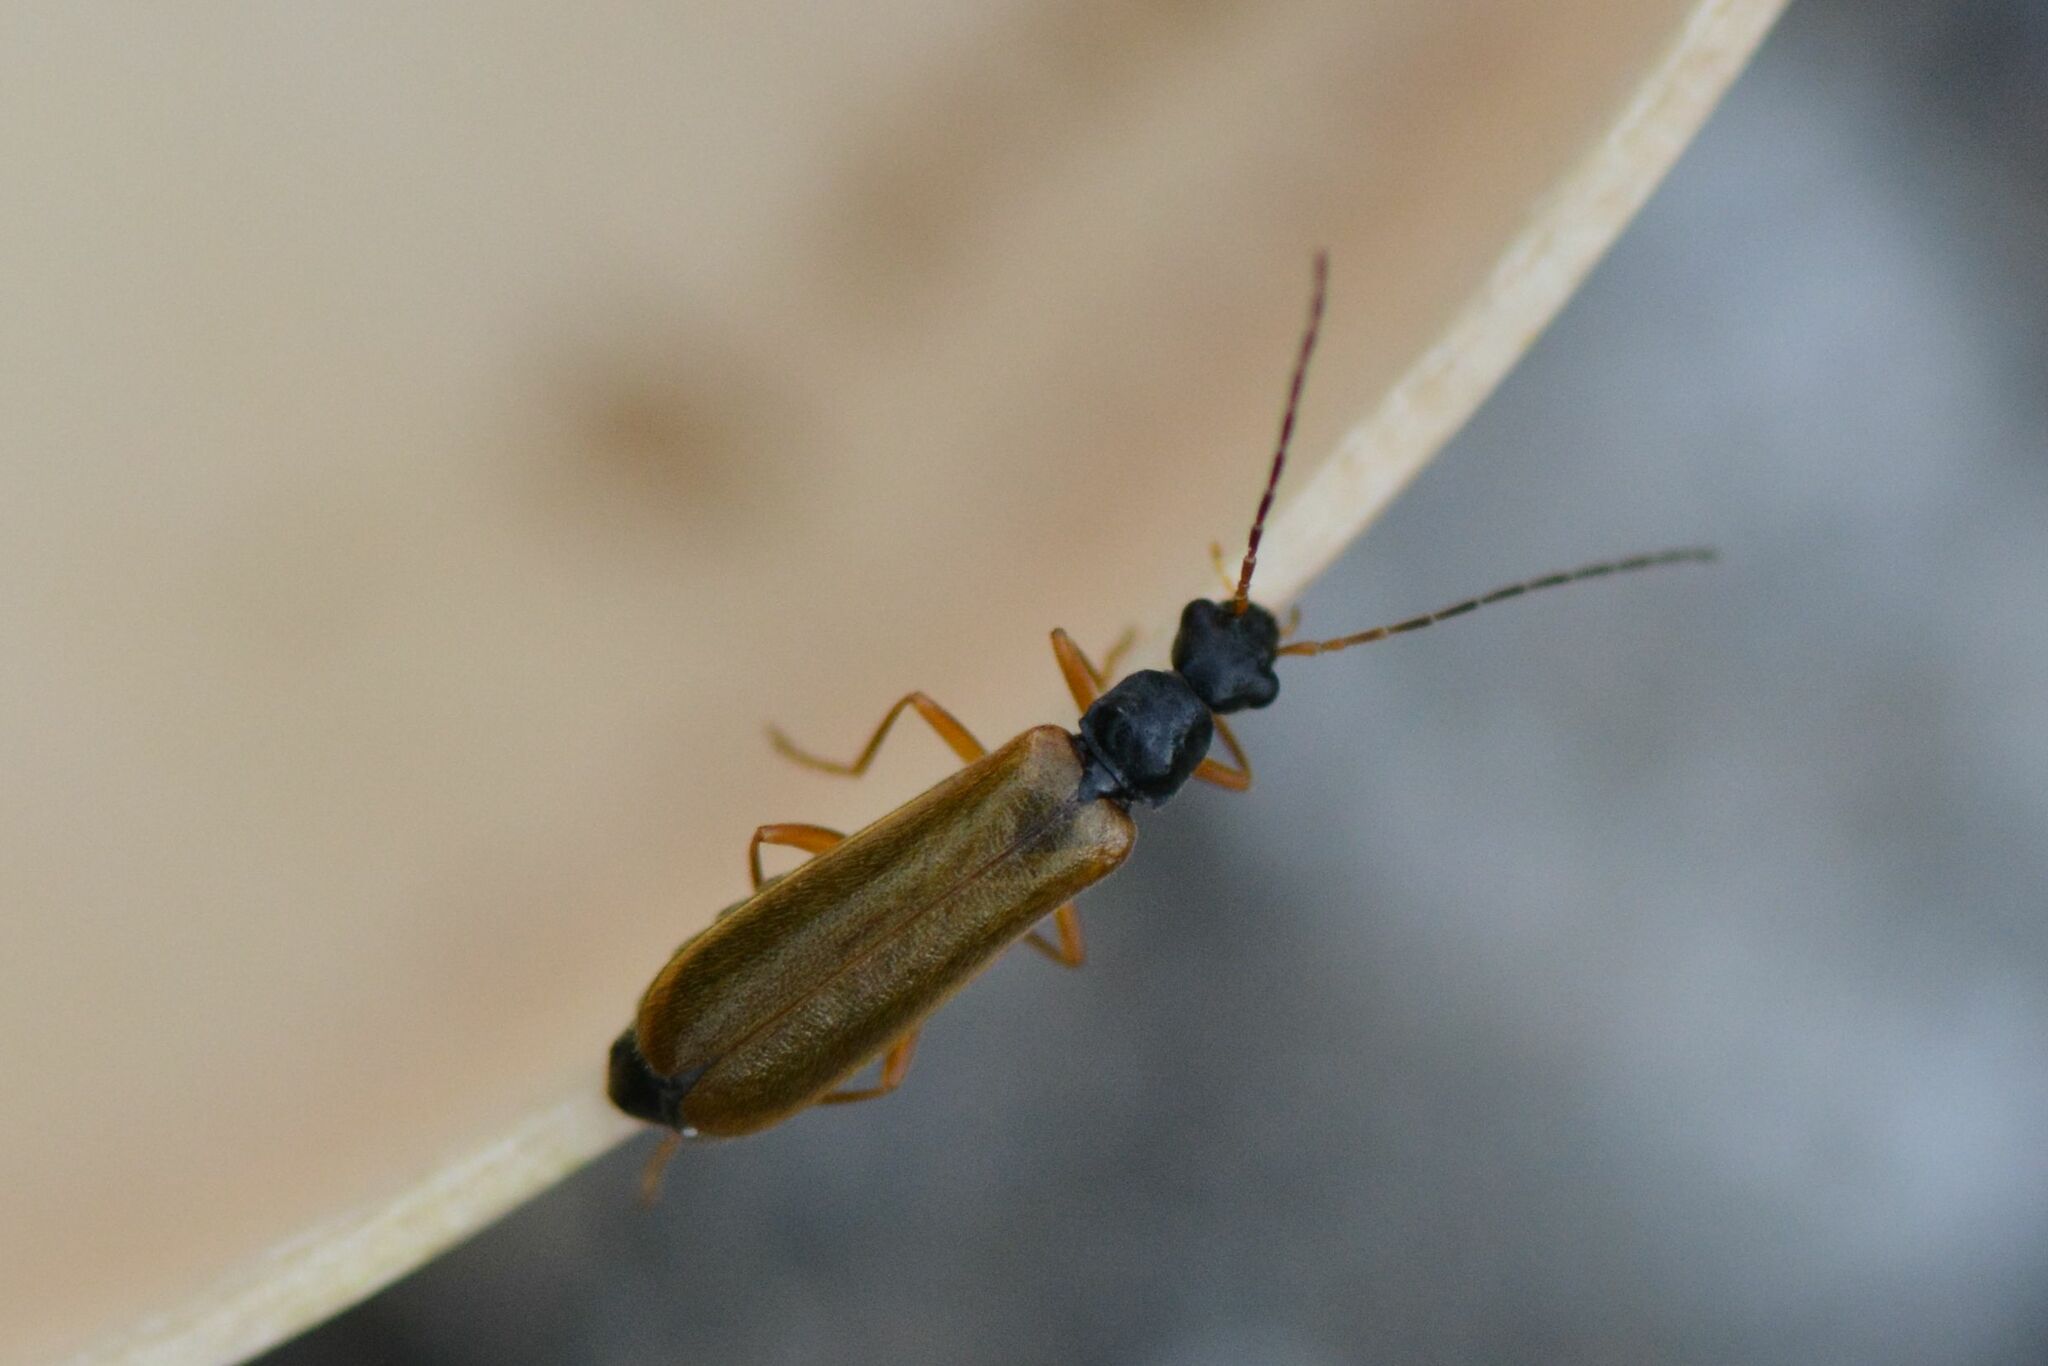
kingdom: Animalia
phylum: Arthropoda
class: Insecta
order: Coleoptera
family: Cantharidae
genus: Rhagonycha
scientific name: Rhagonycha lignosa
